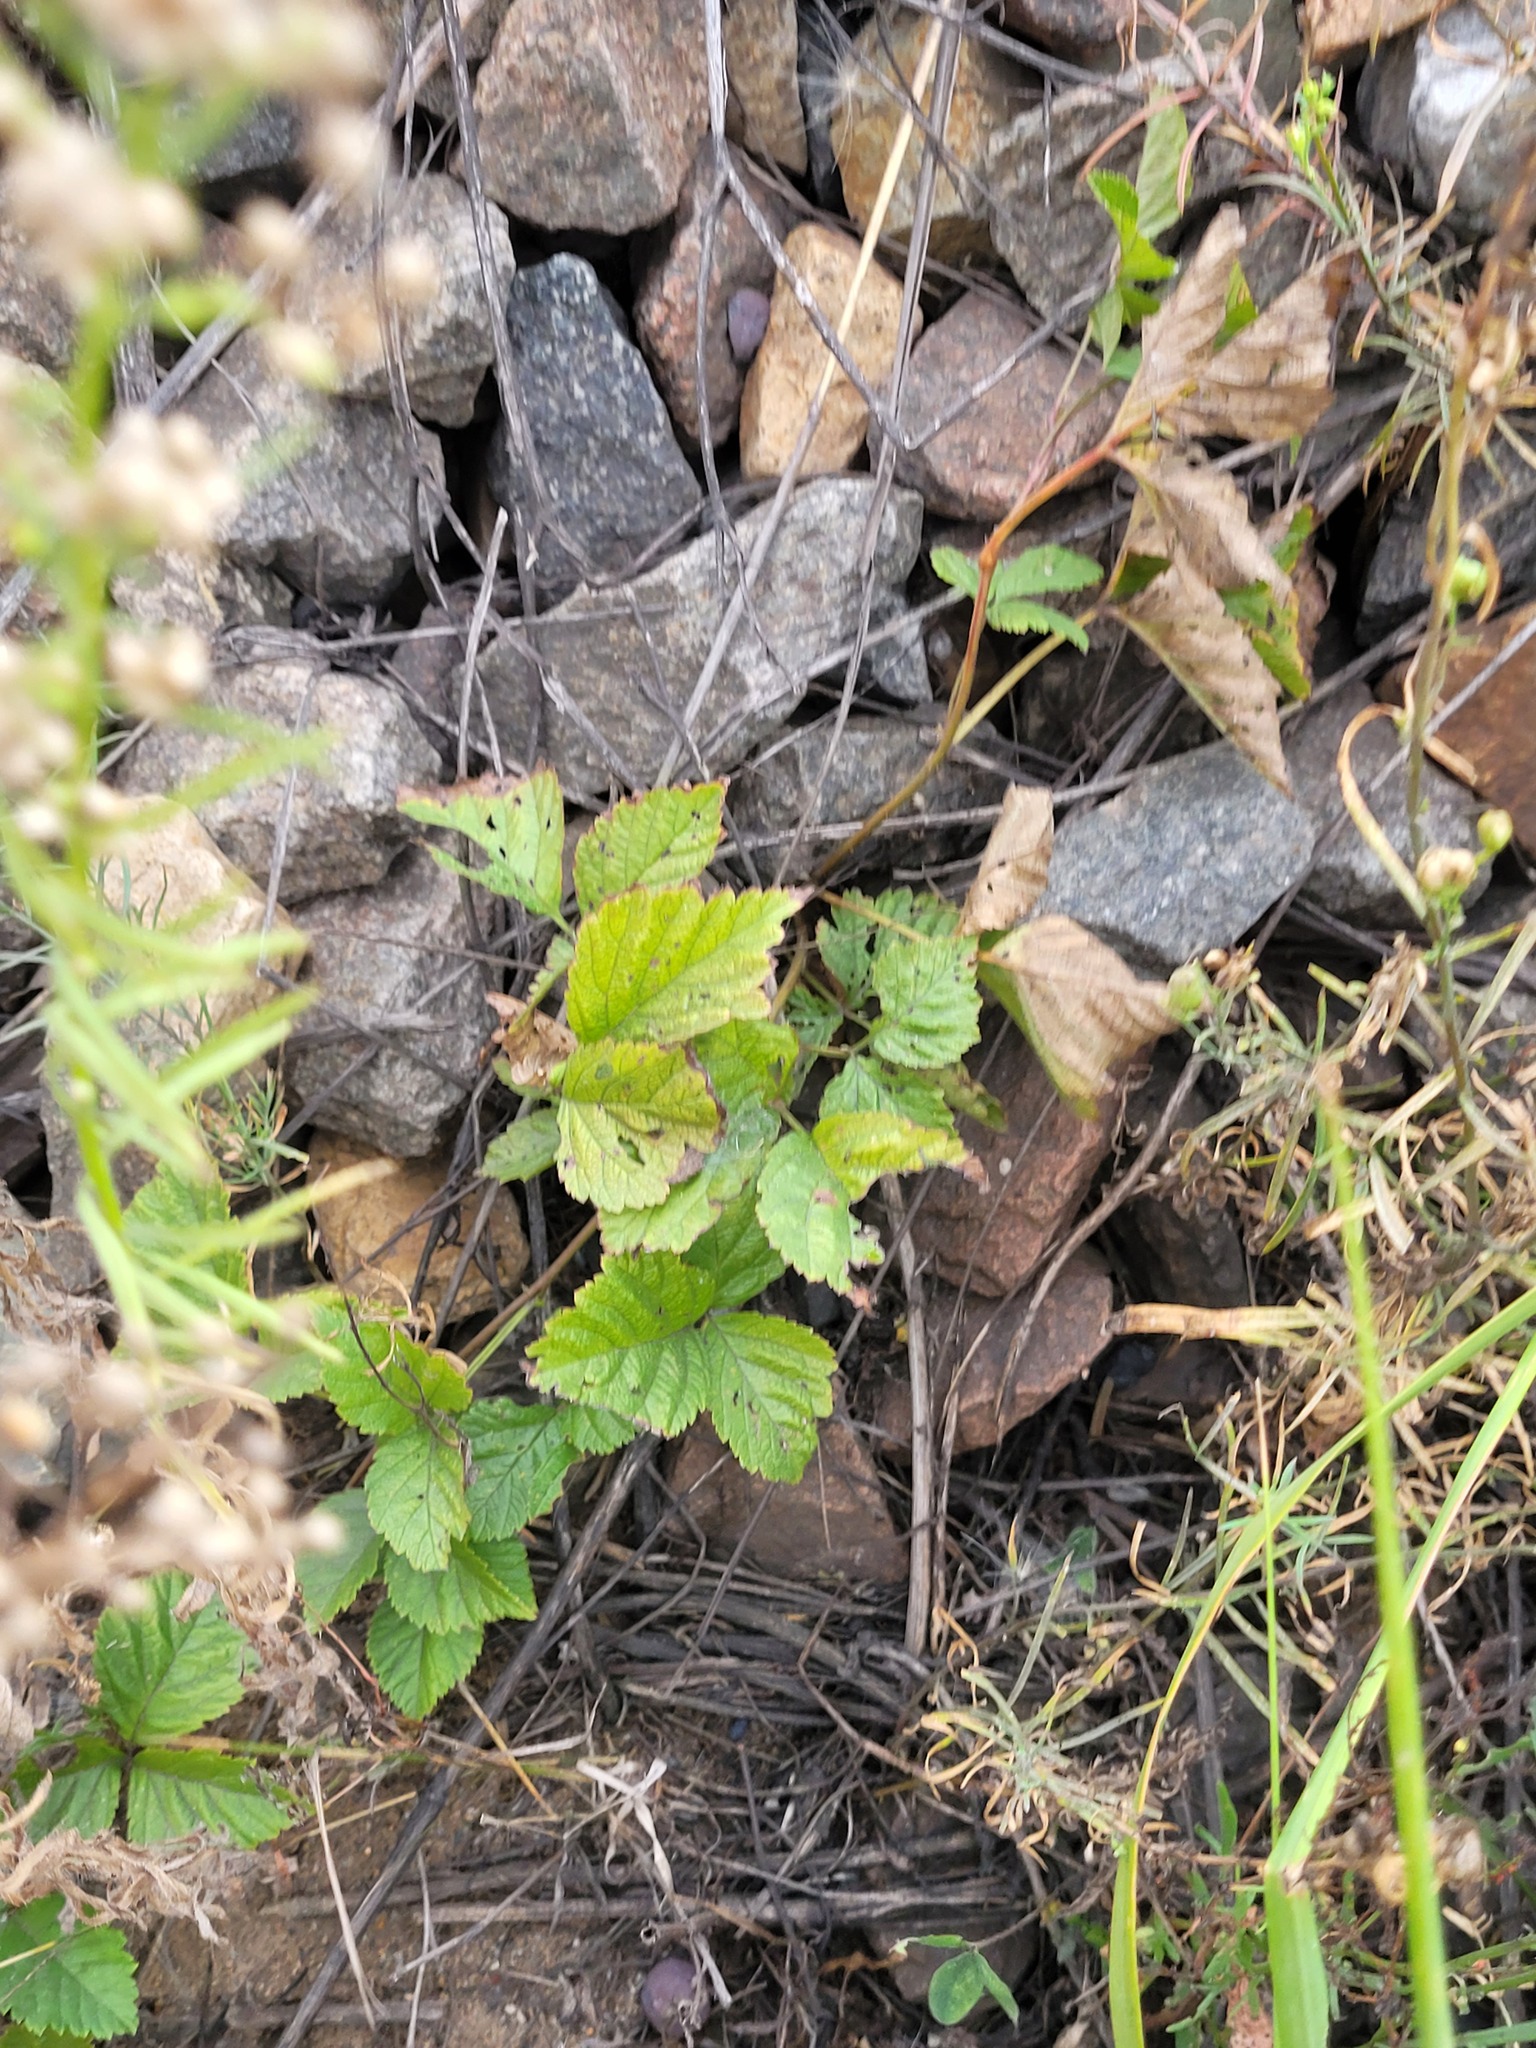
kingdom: Plantae
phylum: Tracheophyta
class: Magnoliopsida
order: Rosales
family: Rosaceae
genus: Rubus
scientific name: Rubus saxatilis
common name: Stone bramble
